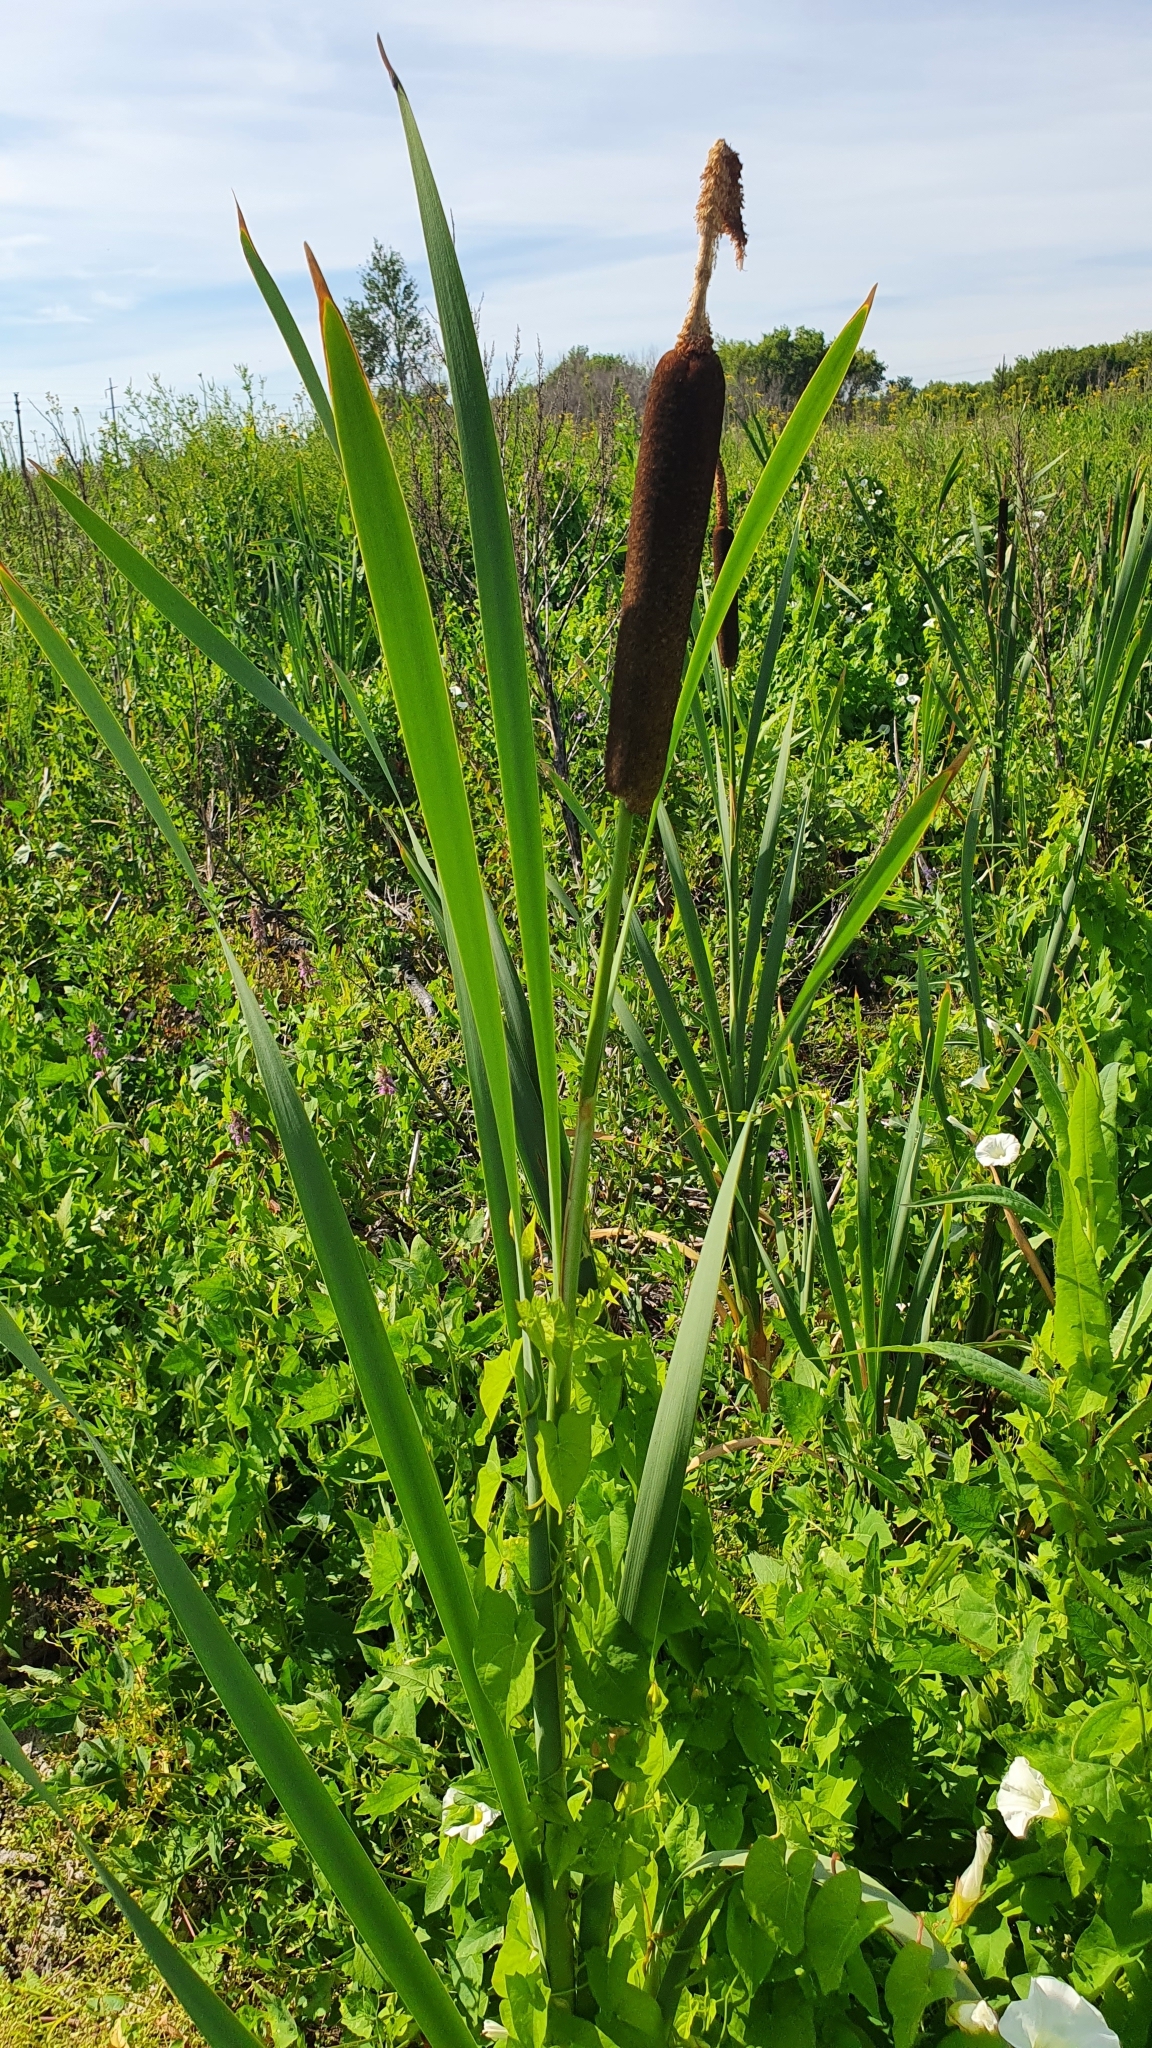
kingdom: Plantae
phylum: Tracheophyta
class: Liliopsida
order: Poales
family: Typhaceae
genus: Typha
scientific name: Typha latifolia
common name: Broadleaf cattail
